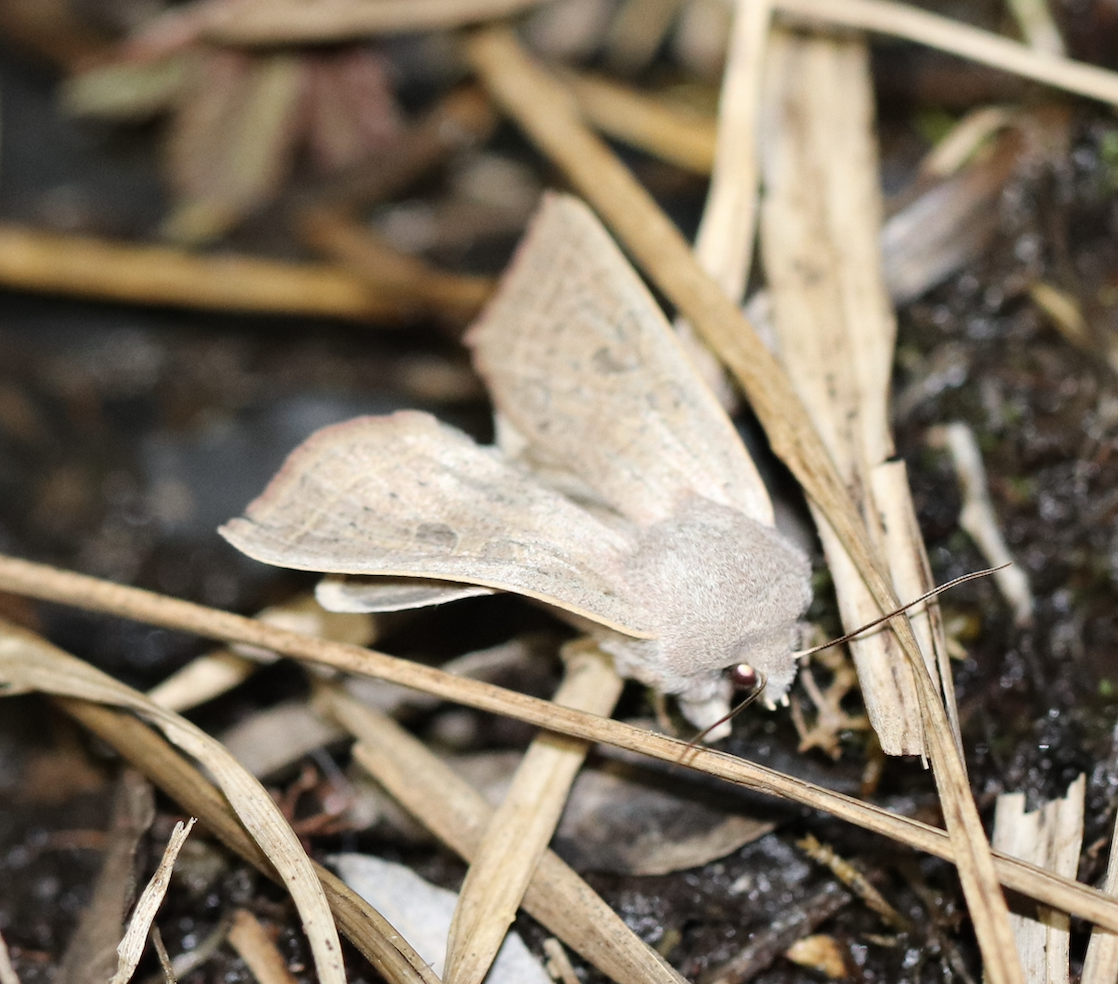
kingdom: Animalia
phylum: Arthropoda
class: Insecta
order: Lepidoptera
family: Noctuidae
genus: Orthosia
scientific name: Orthosia gracilis
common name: Powdered quaker
